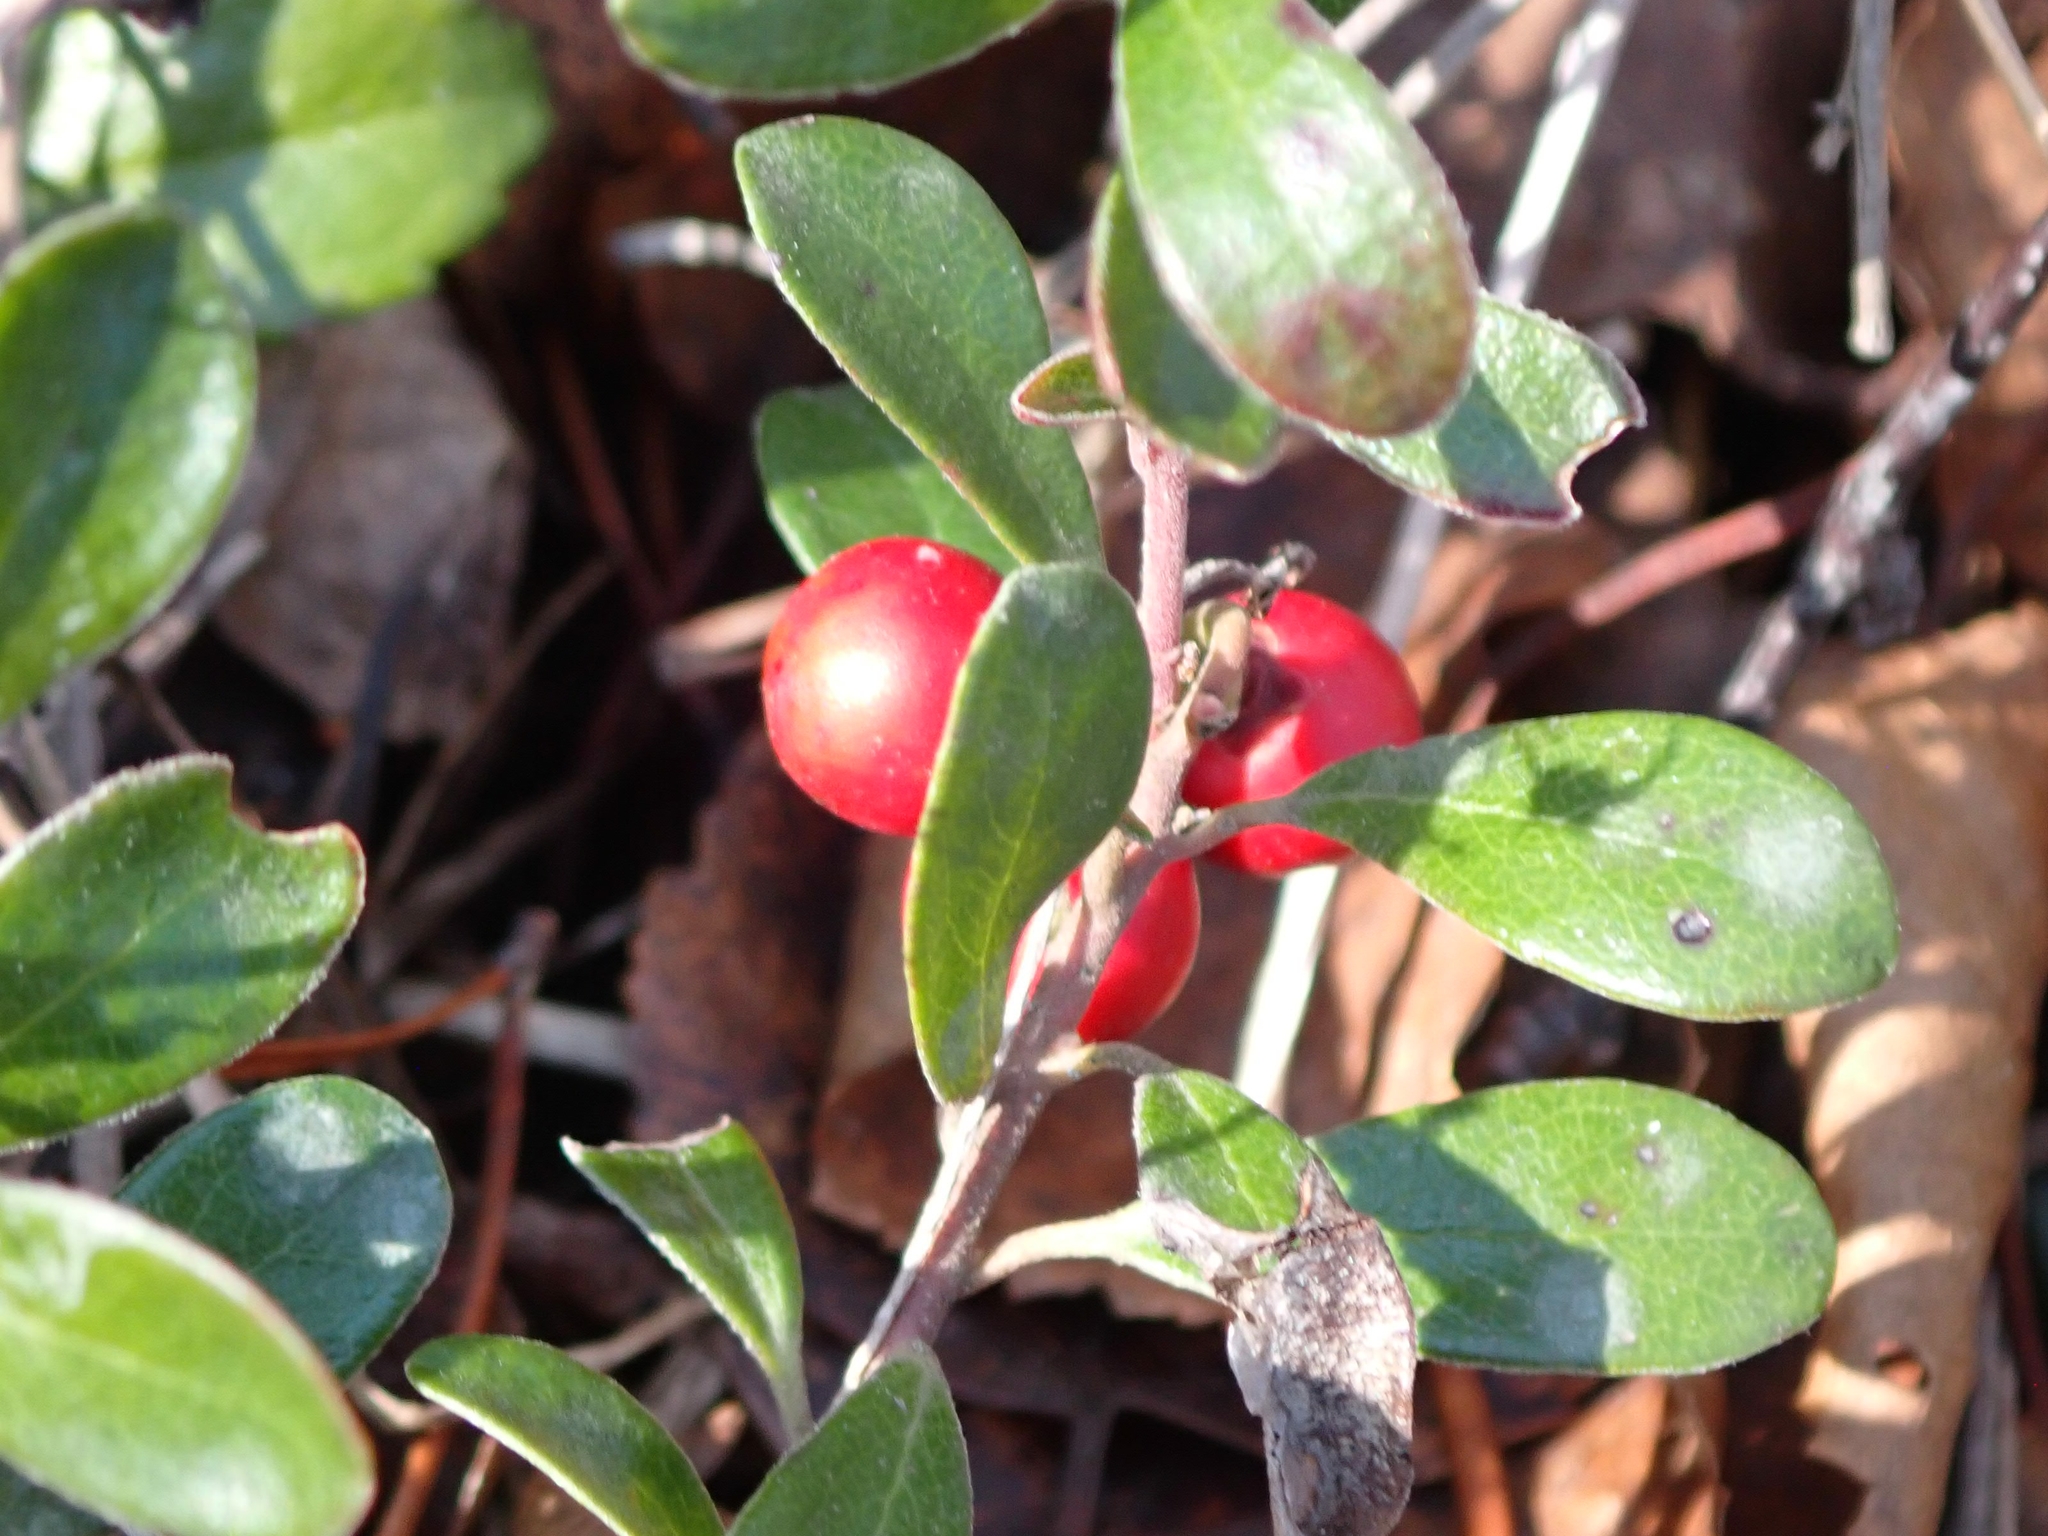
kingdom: Plantae
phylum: Tracheophyta
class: Magnoliopsida
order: Ericales
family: Ericaceae
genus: Arctostaphylos
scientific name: Arctostaphylos uva-ursi
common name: Bearberry
